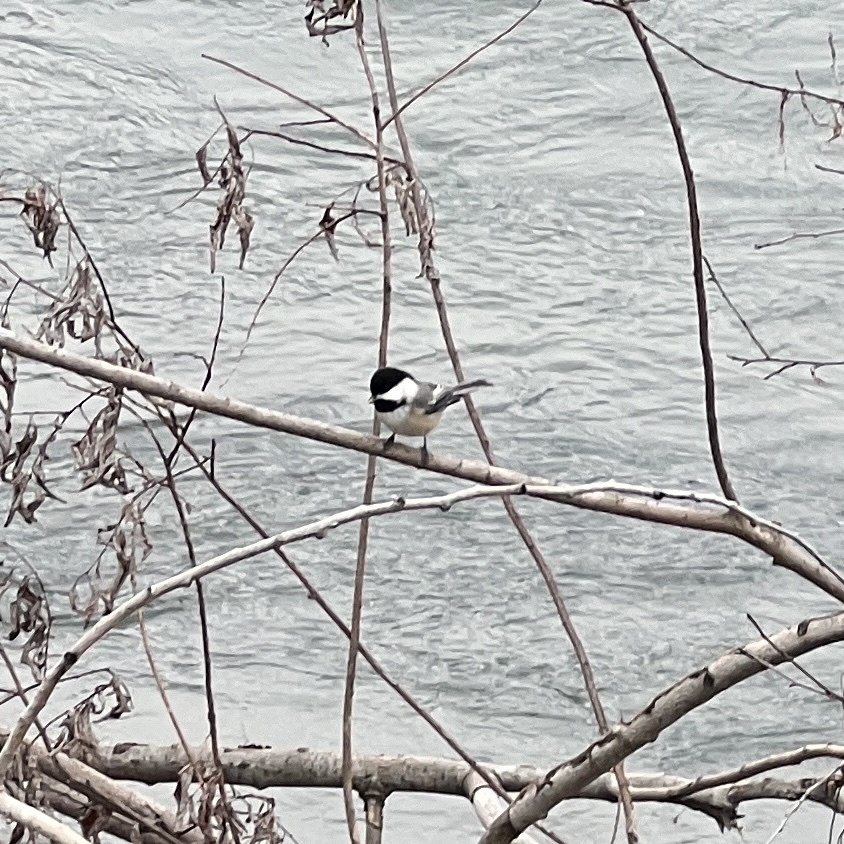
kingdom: Animalia
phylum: Chordata
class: Aves
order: Passeriformes
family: Paridae
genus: Poecile
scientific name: Poecile atricapillus
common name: Black-capped chickadee
